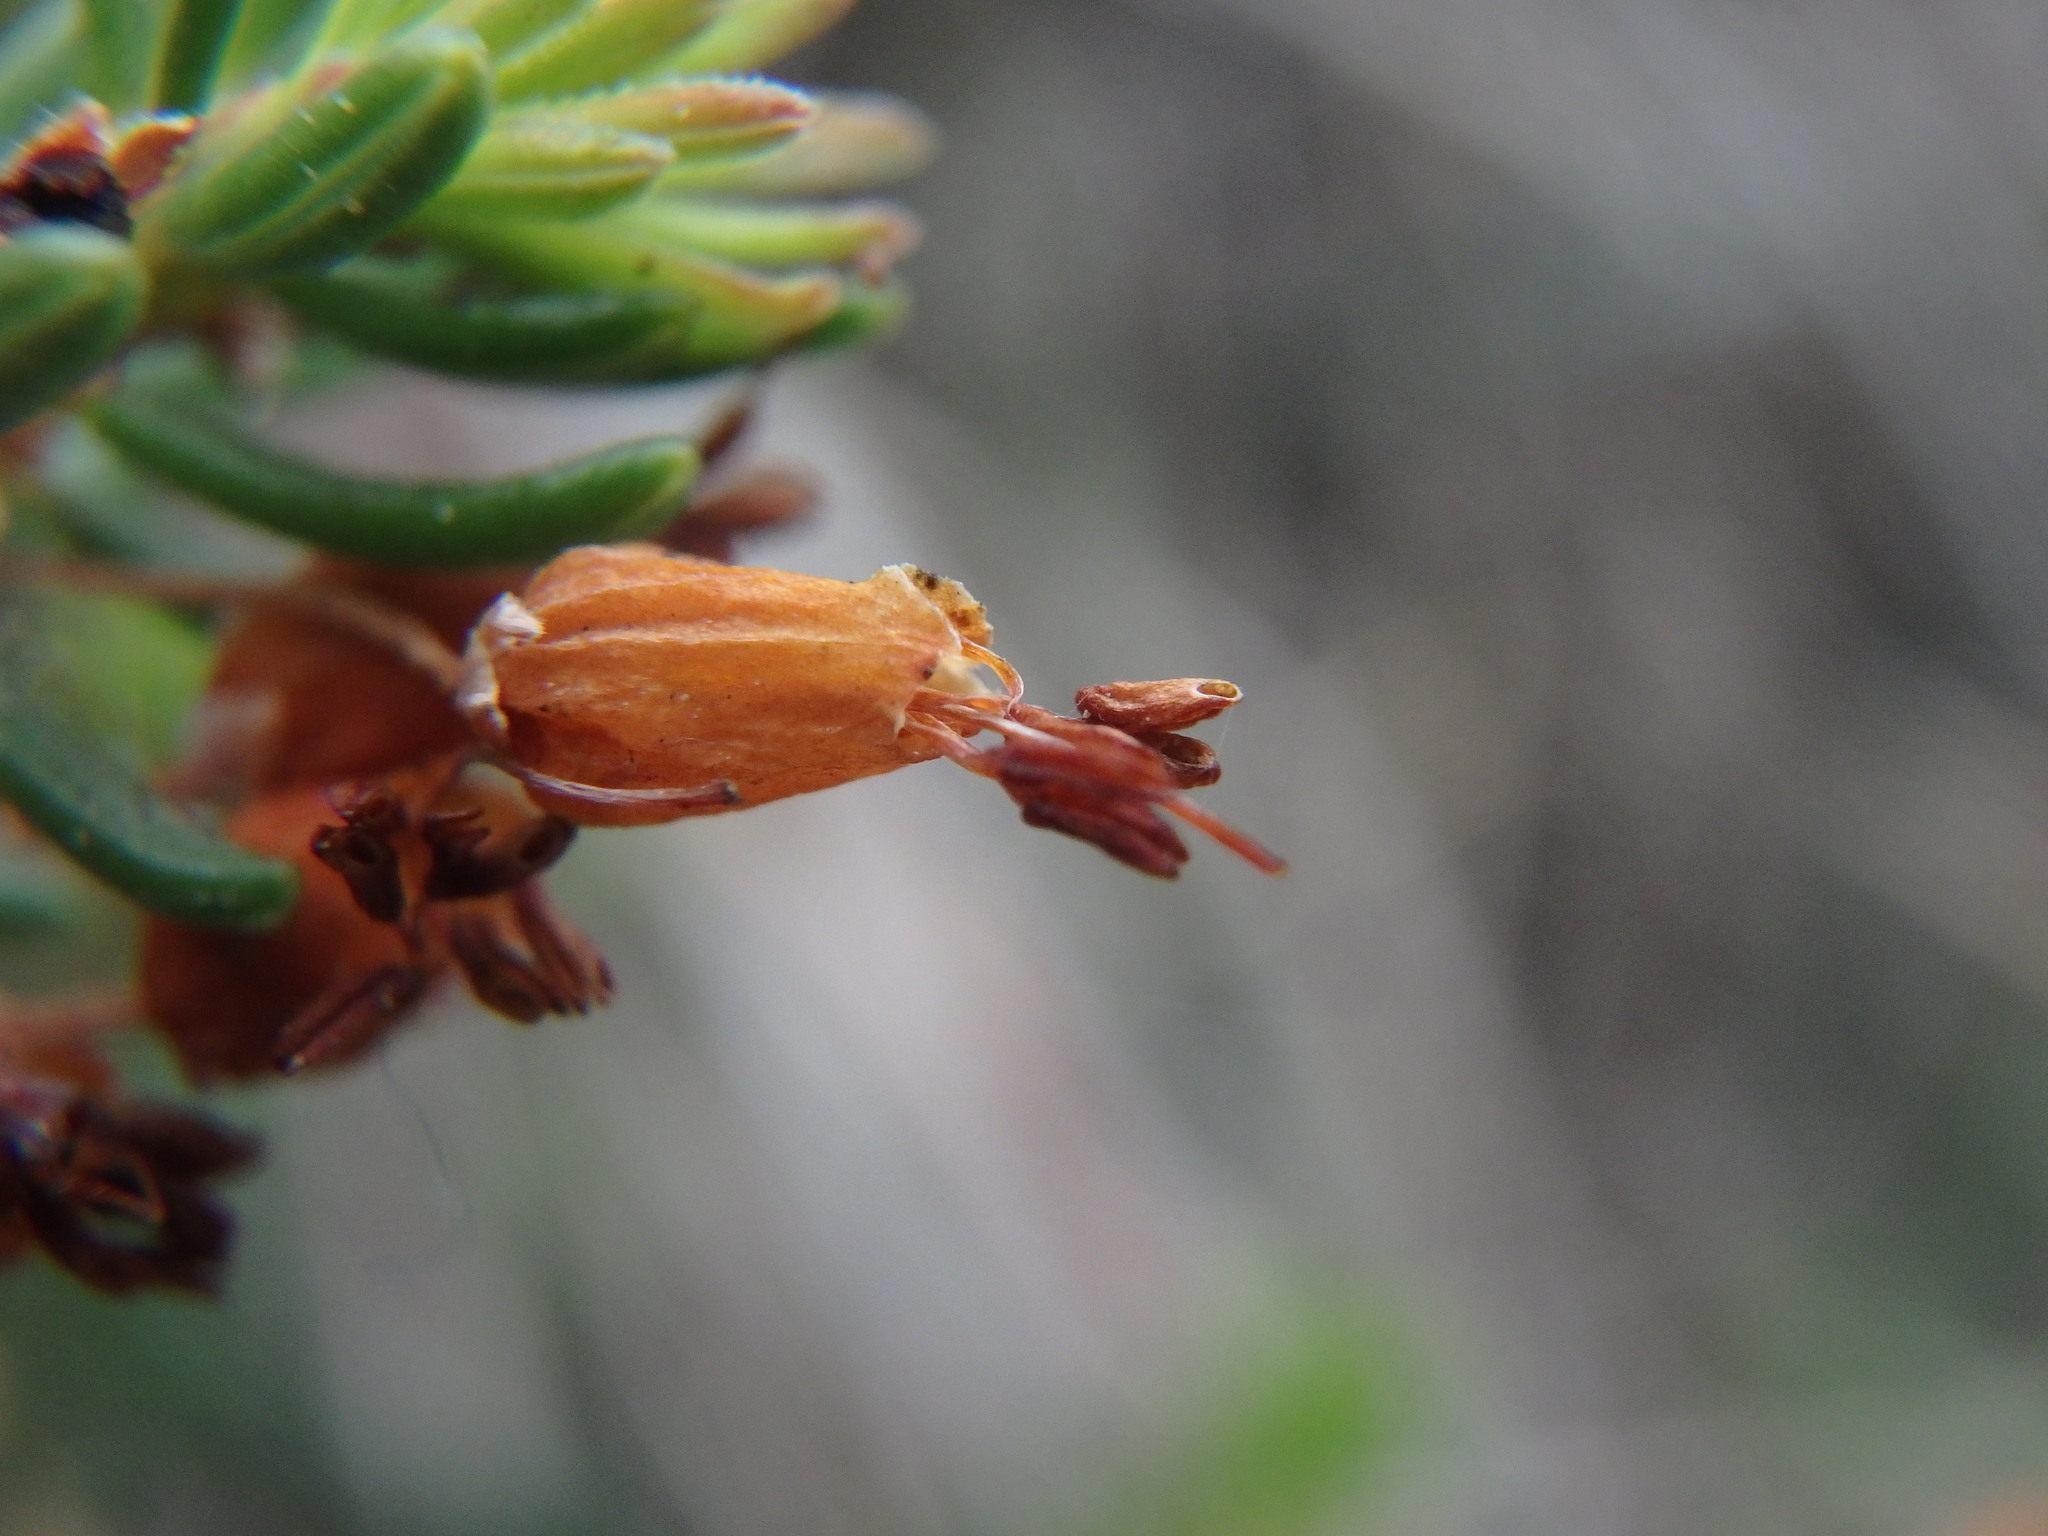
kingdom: Plantae
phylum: Tracheophyta
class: Magnoliopsida
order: Ericales
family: Ericaceae
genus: Erica
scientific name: Erica multiflora
